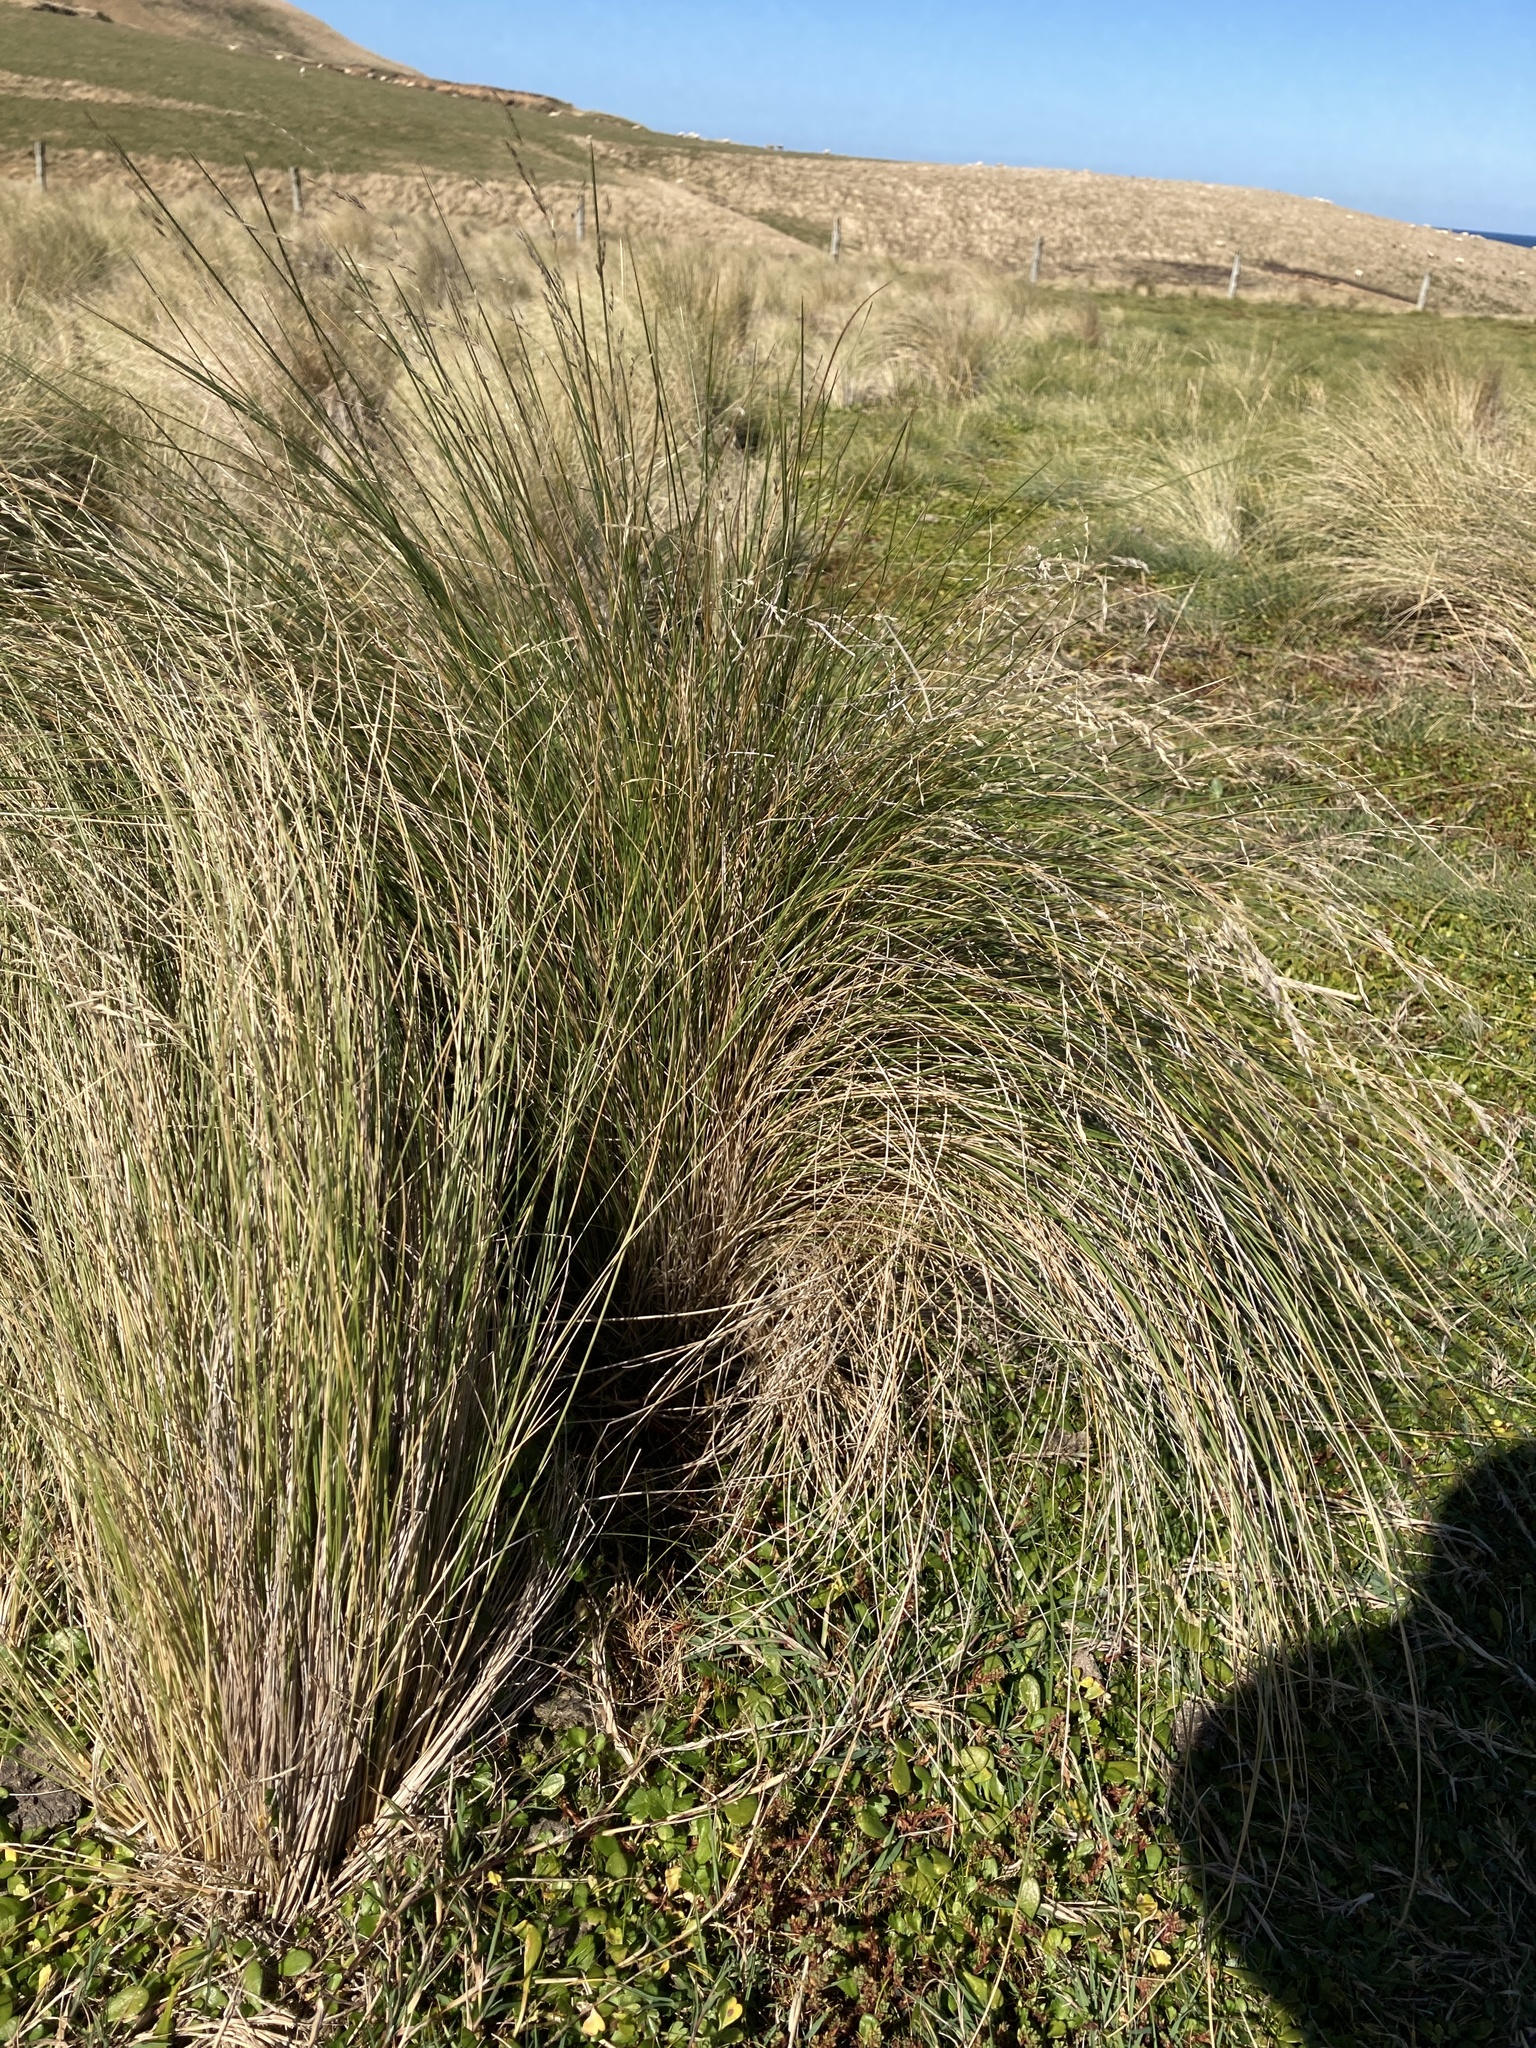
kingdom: Plantae
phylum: Tracheophyta
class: Liliopsida
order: Poales
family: Poaceae
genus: Poa
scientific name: Poa cita
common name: Silver tussock
